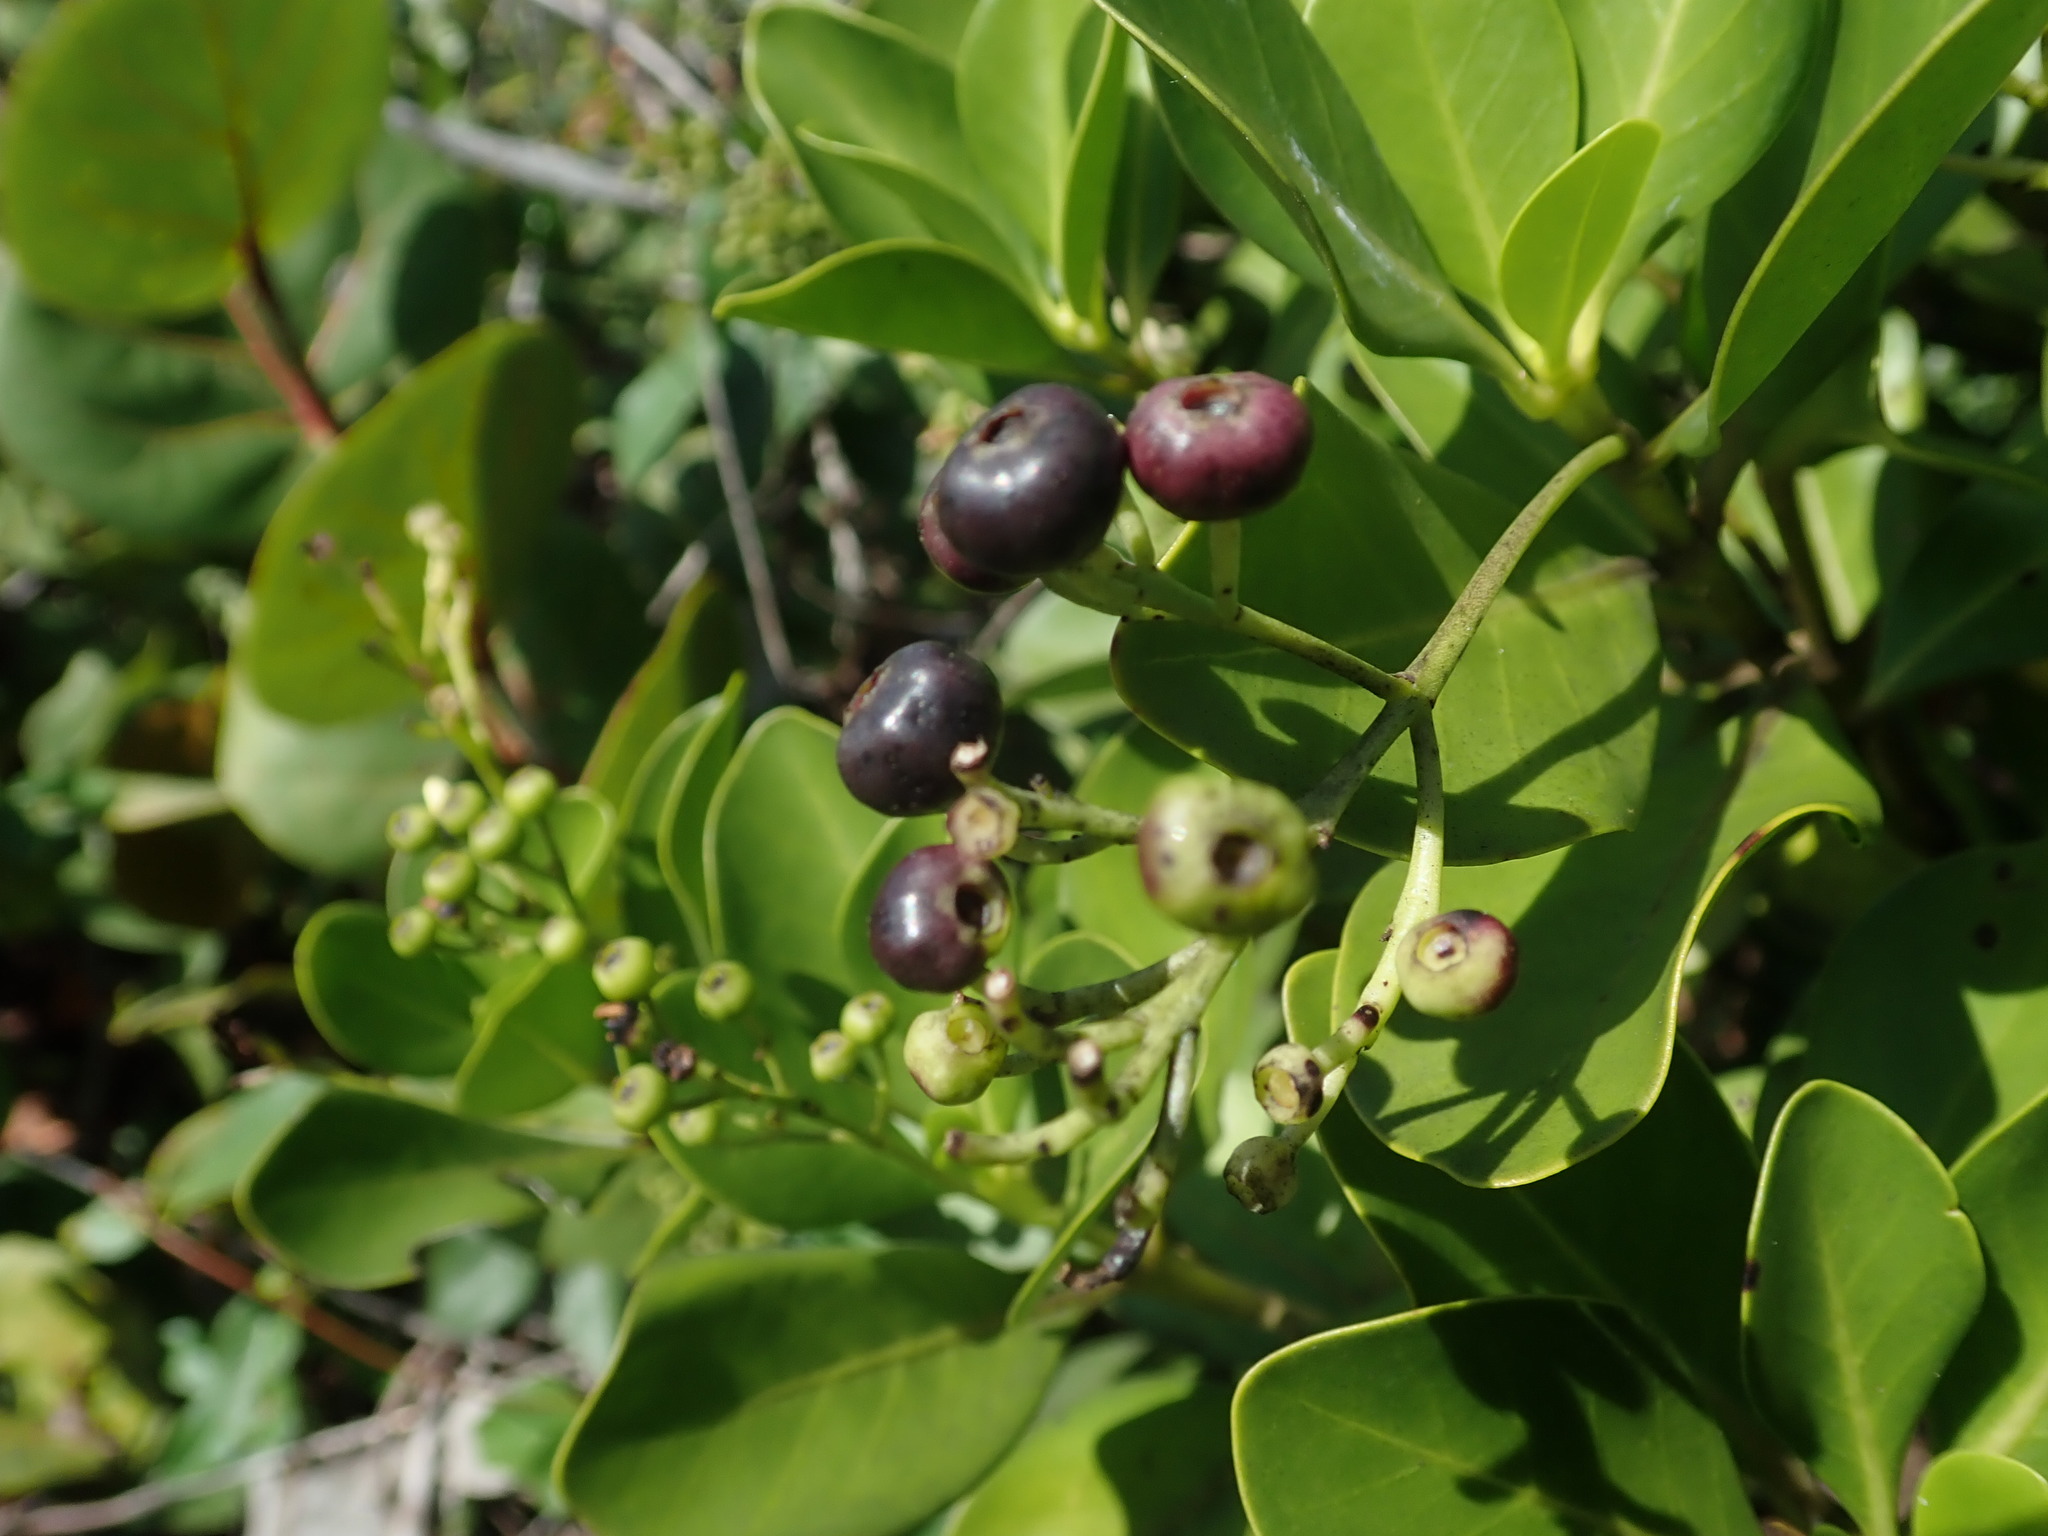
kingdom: Plantae
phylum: Tracheophyta
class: Magnoliopsida
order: Gentianales
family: Rubiaceae
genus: Erithalis
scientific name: Erithalis fruticosa
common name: Candlewood
